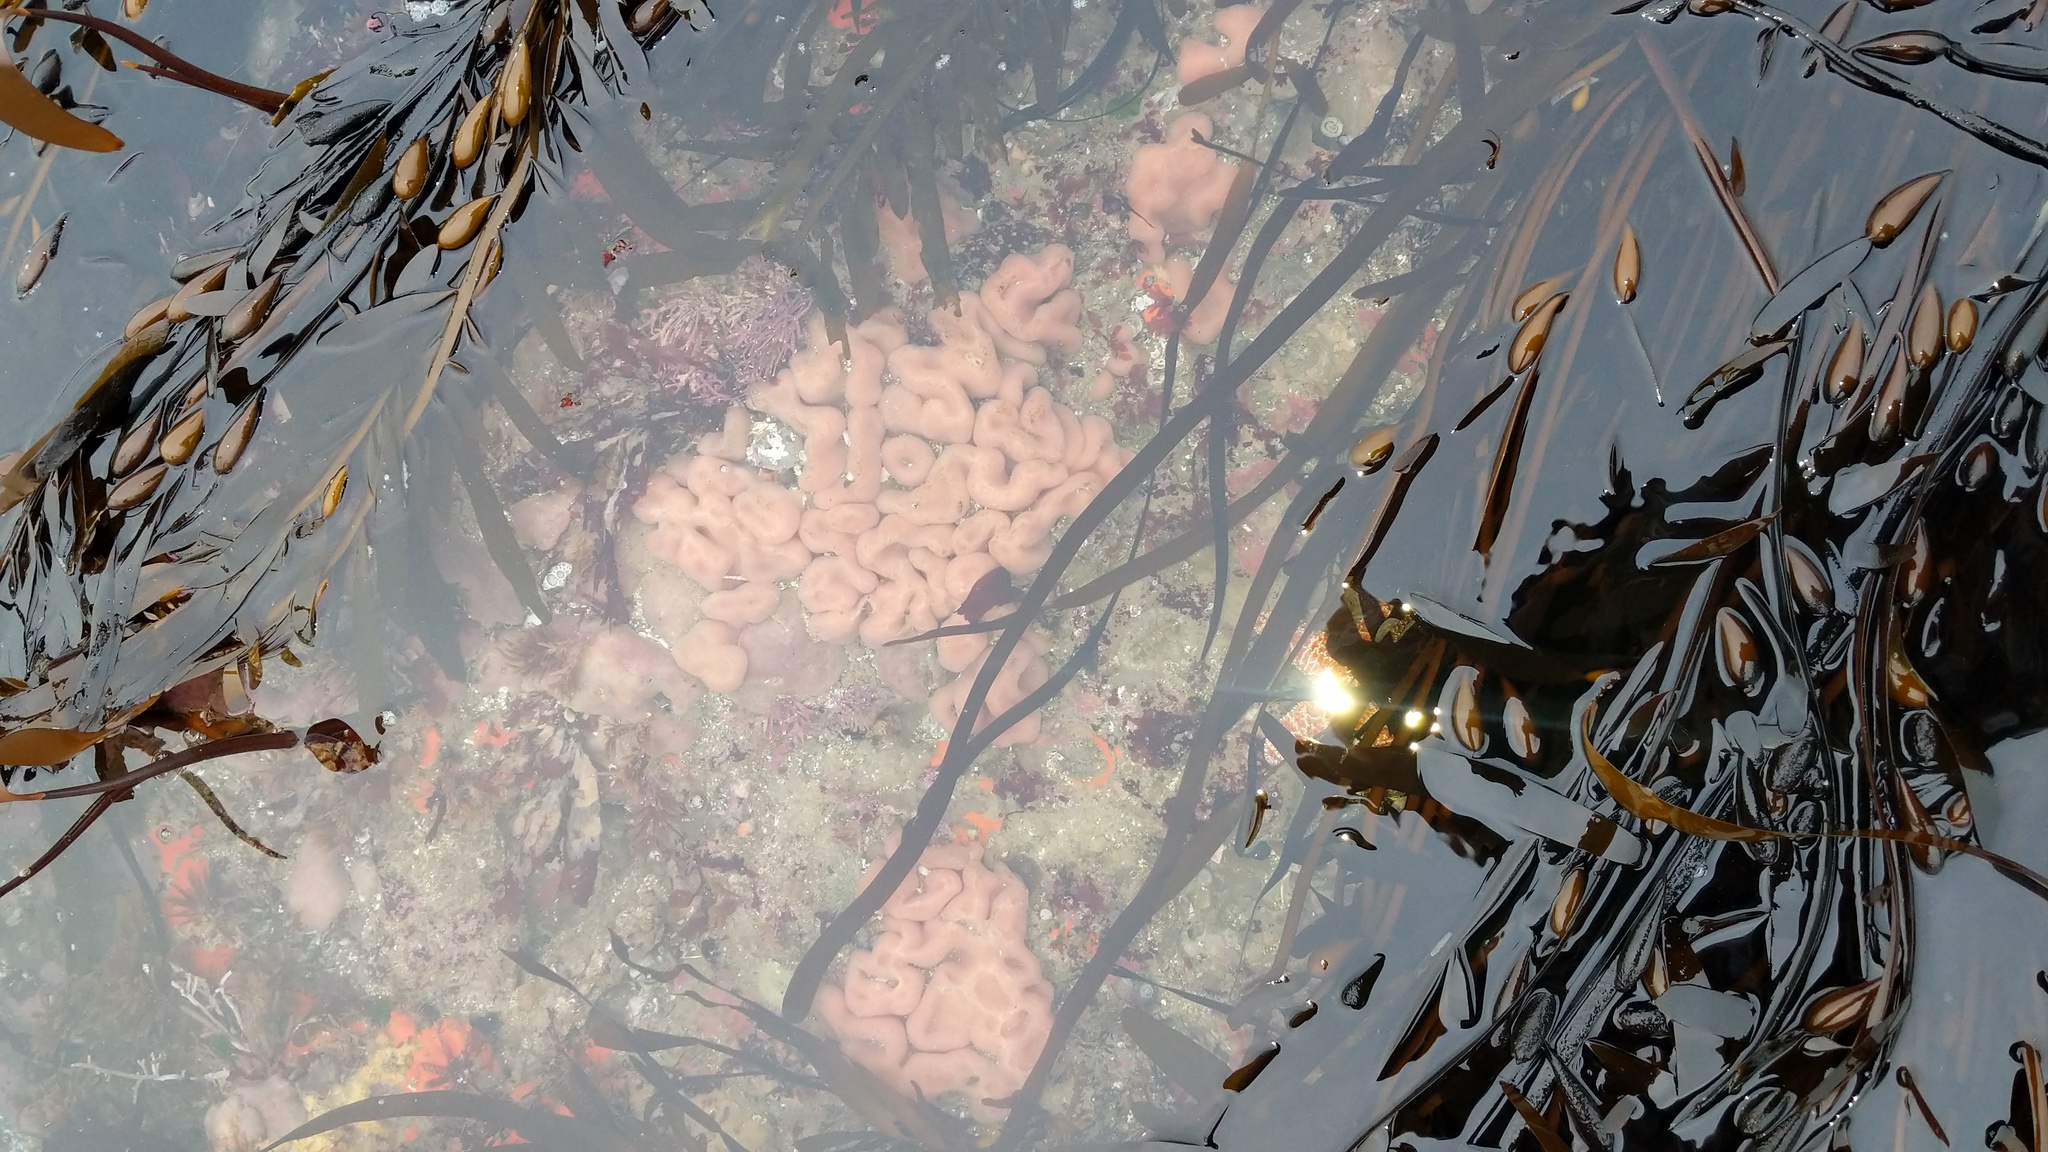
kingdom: Animalia
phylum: Chordata
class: Ascidiacea
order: Aplousobranchia
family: Polycitoridae
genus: Cystodytes
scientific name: Cystodytes lobatus
